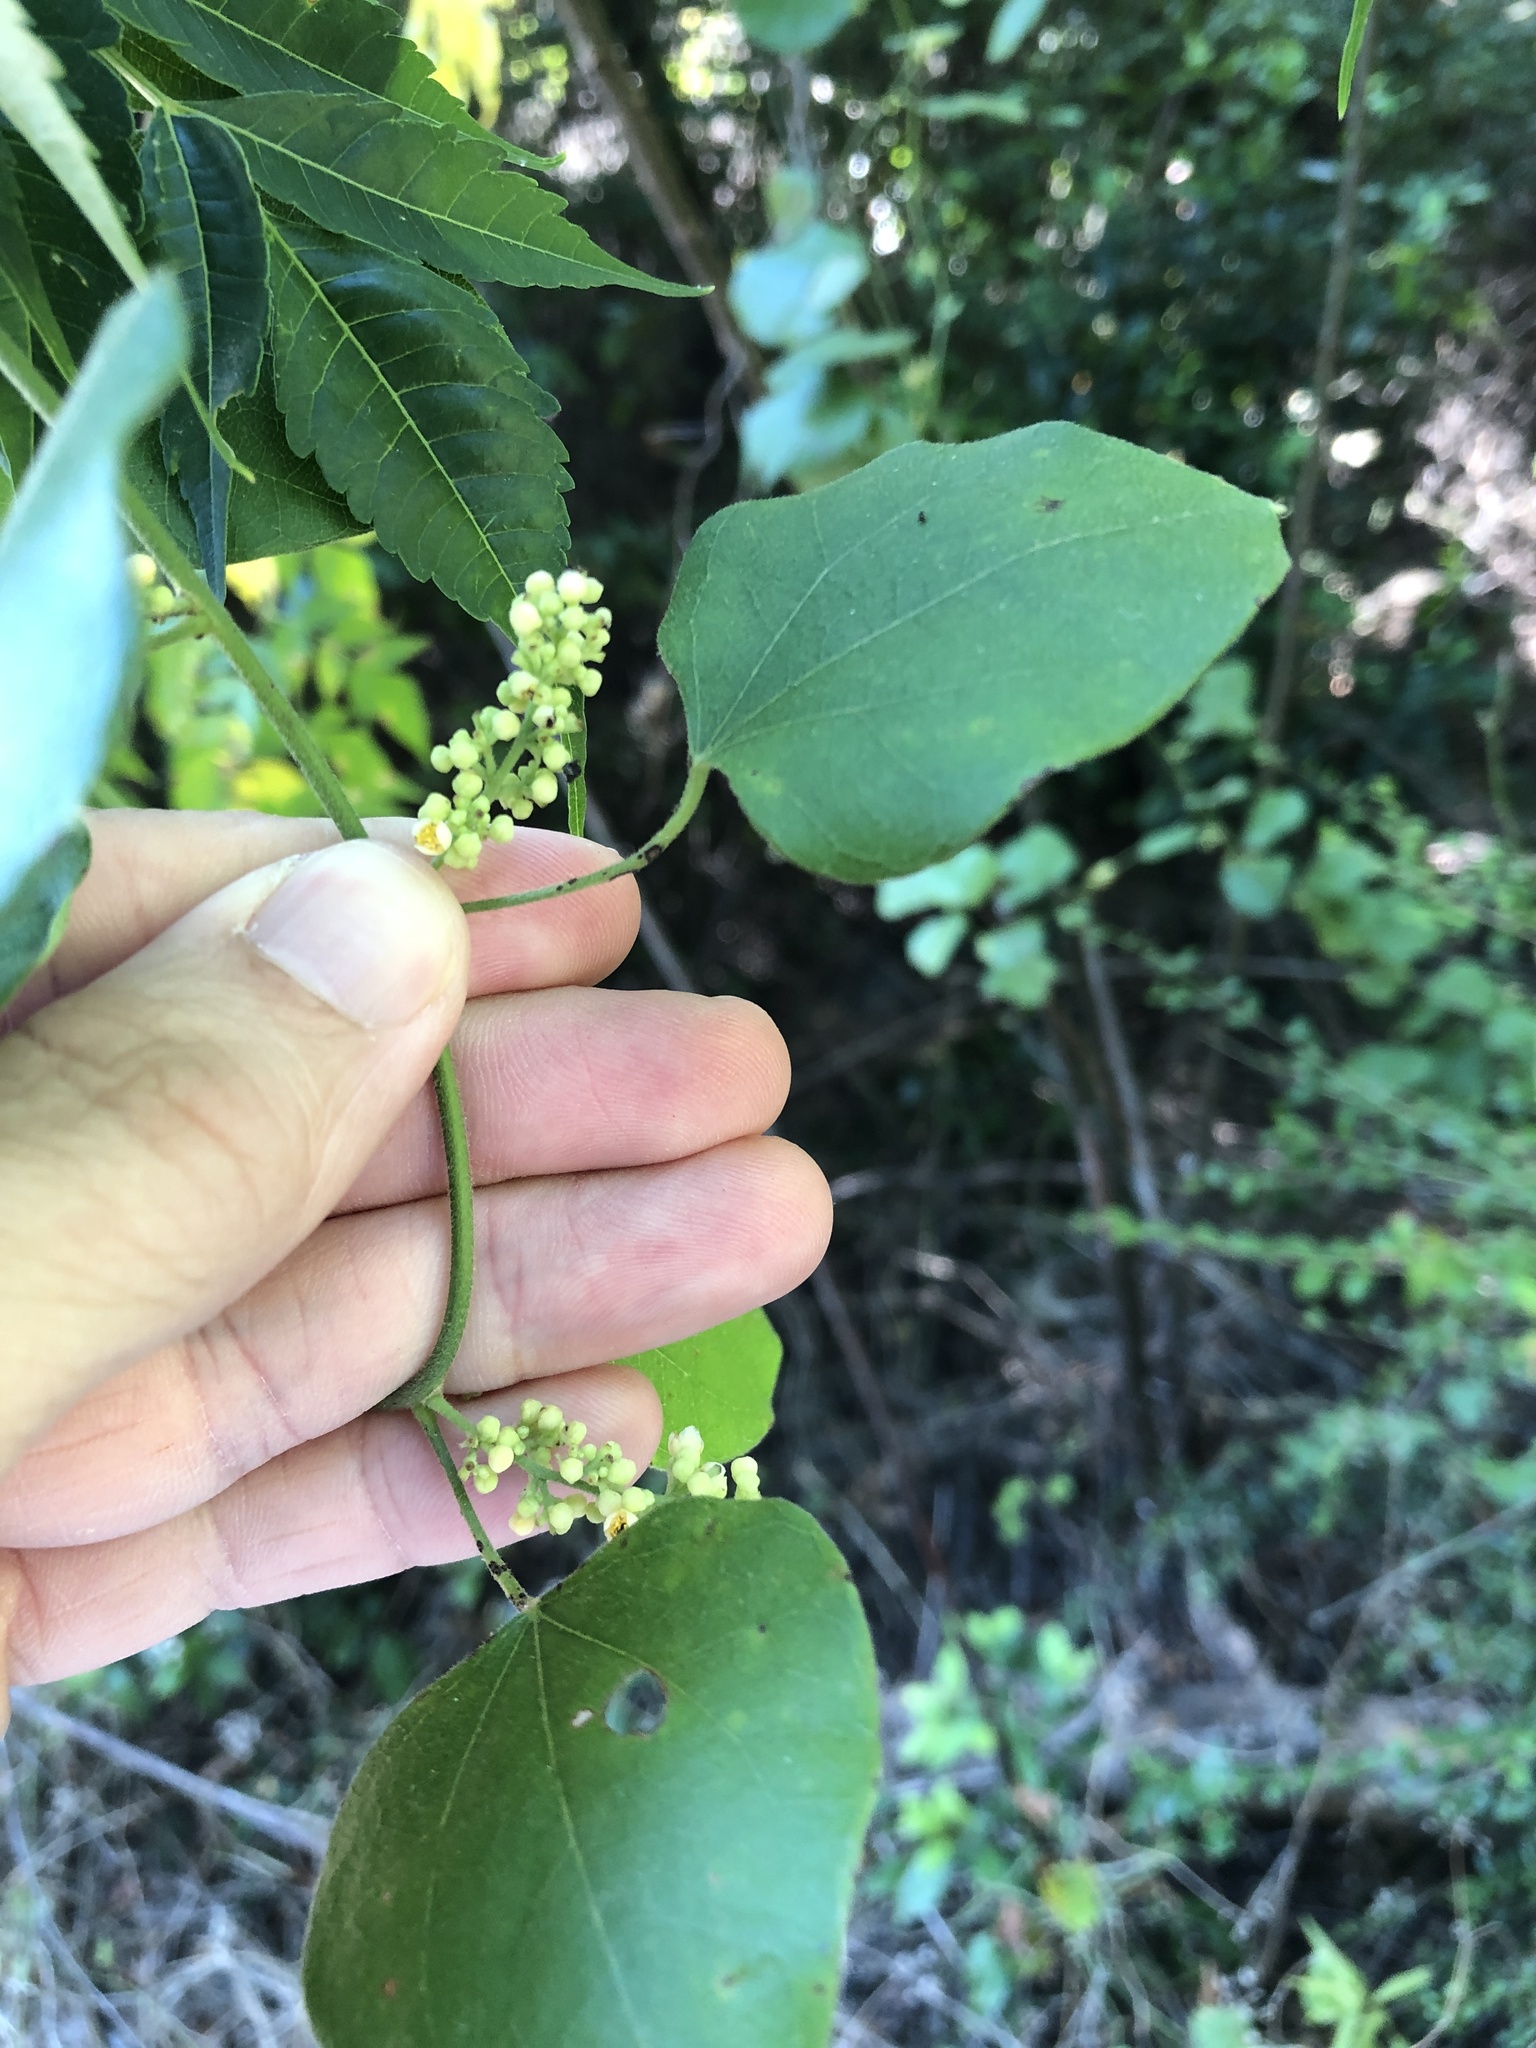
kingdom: Plantae
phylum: Tracheophyta
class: Magnoliopsida
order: Ranunculales
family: Menispermaceae
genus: Cocculus
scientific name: Cocculus carolinus
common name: Carolina moonseed
